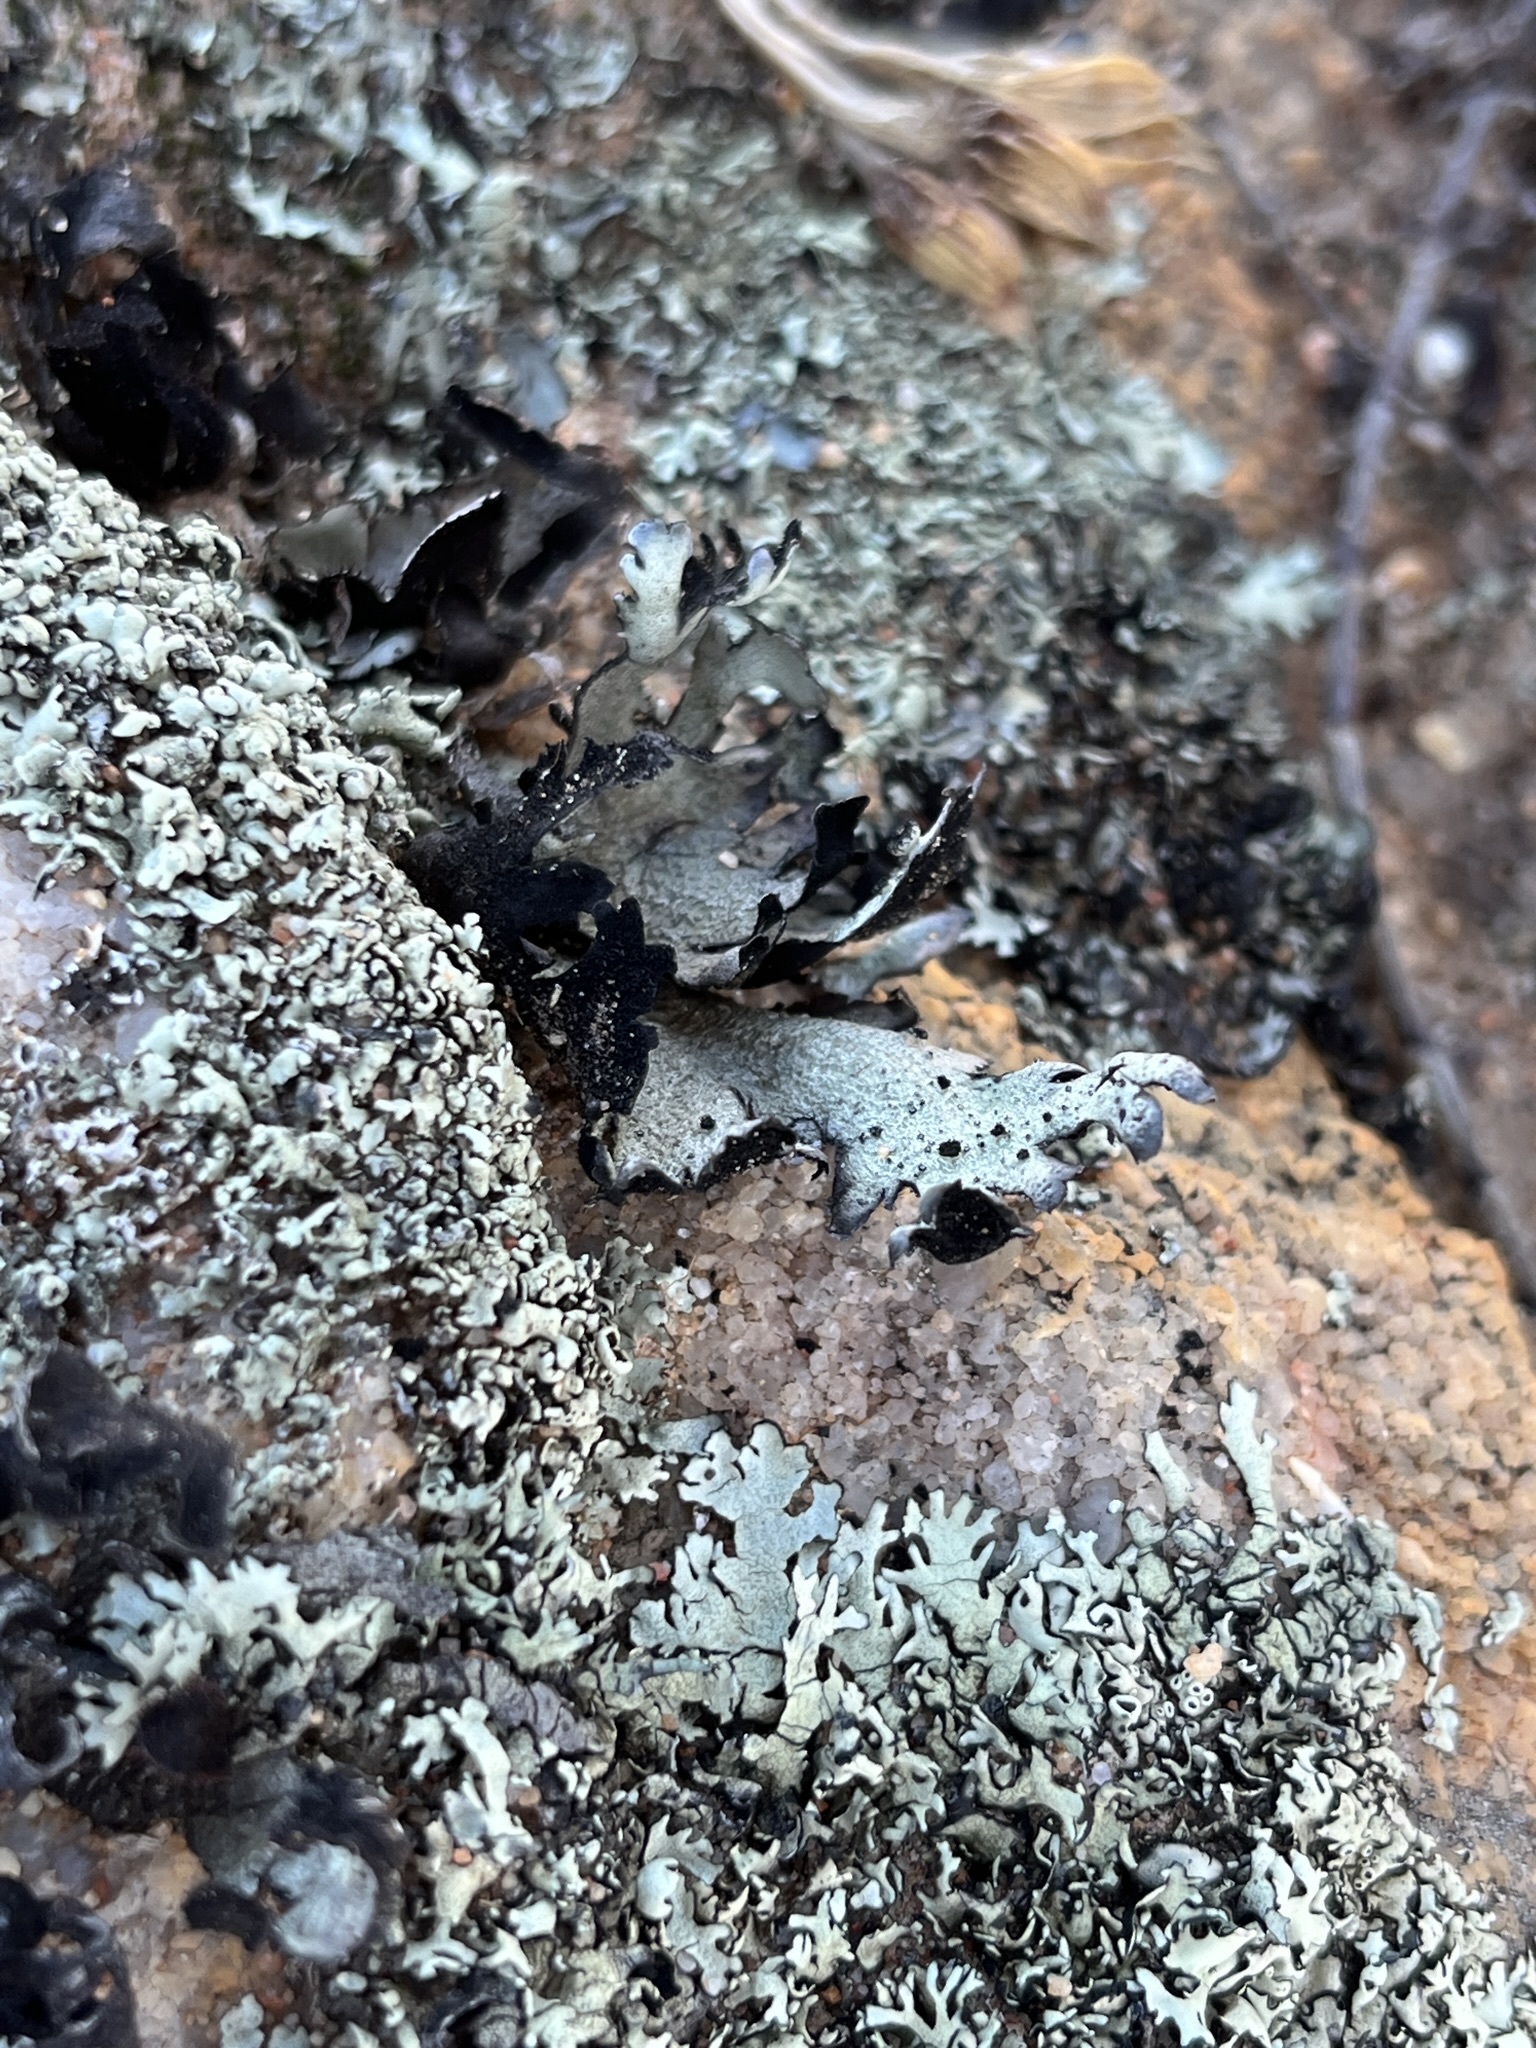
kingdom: Fungi
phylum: Ascomycota
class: Lecanoromycetes
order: Lecanorales
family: Parmeliaceae
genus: Xanthoparmelia
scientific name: Xanthoparmelia hottentotta
